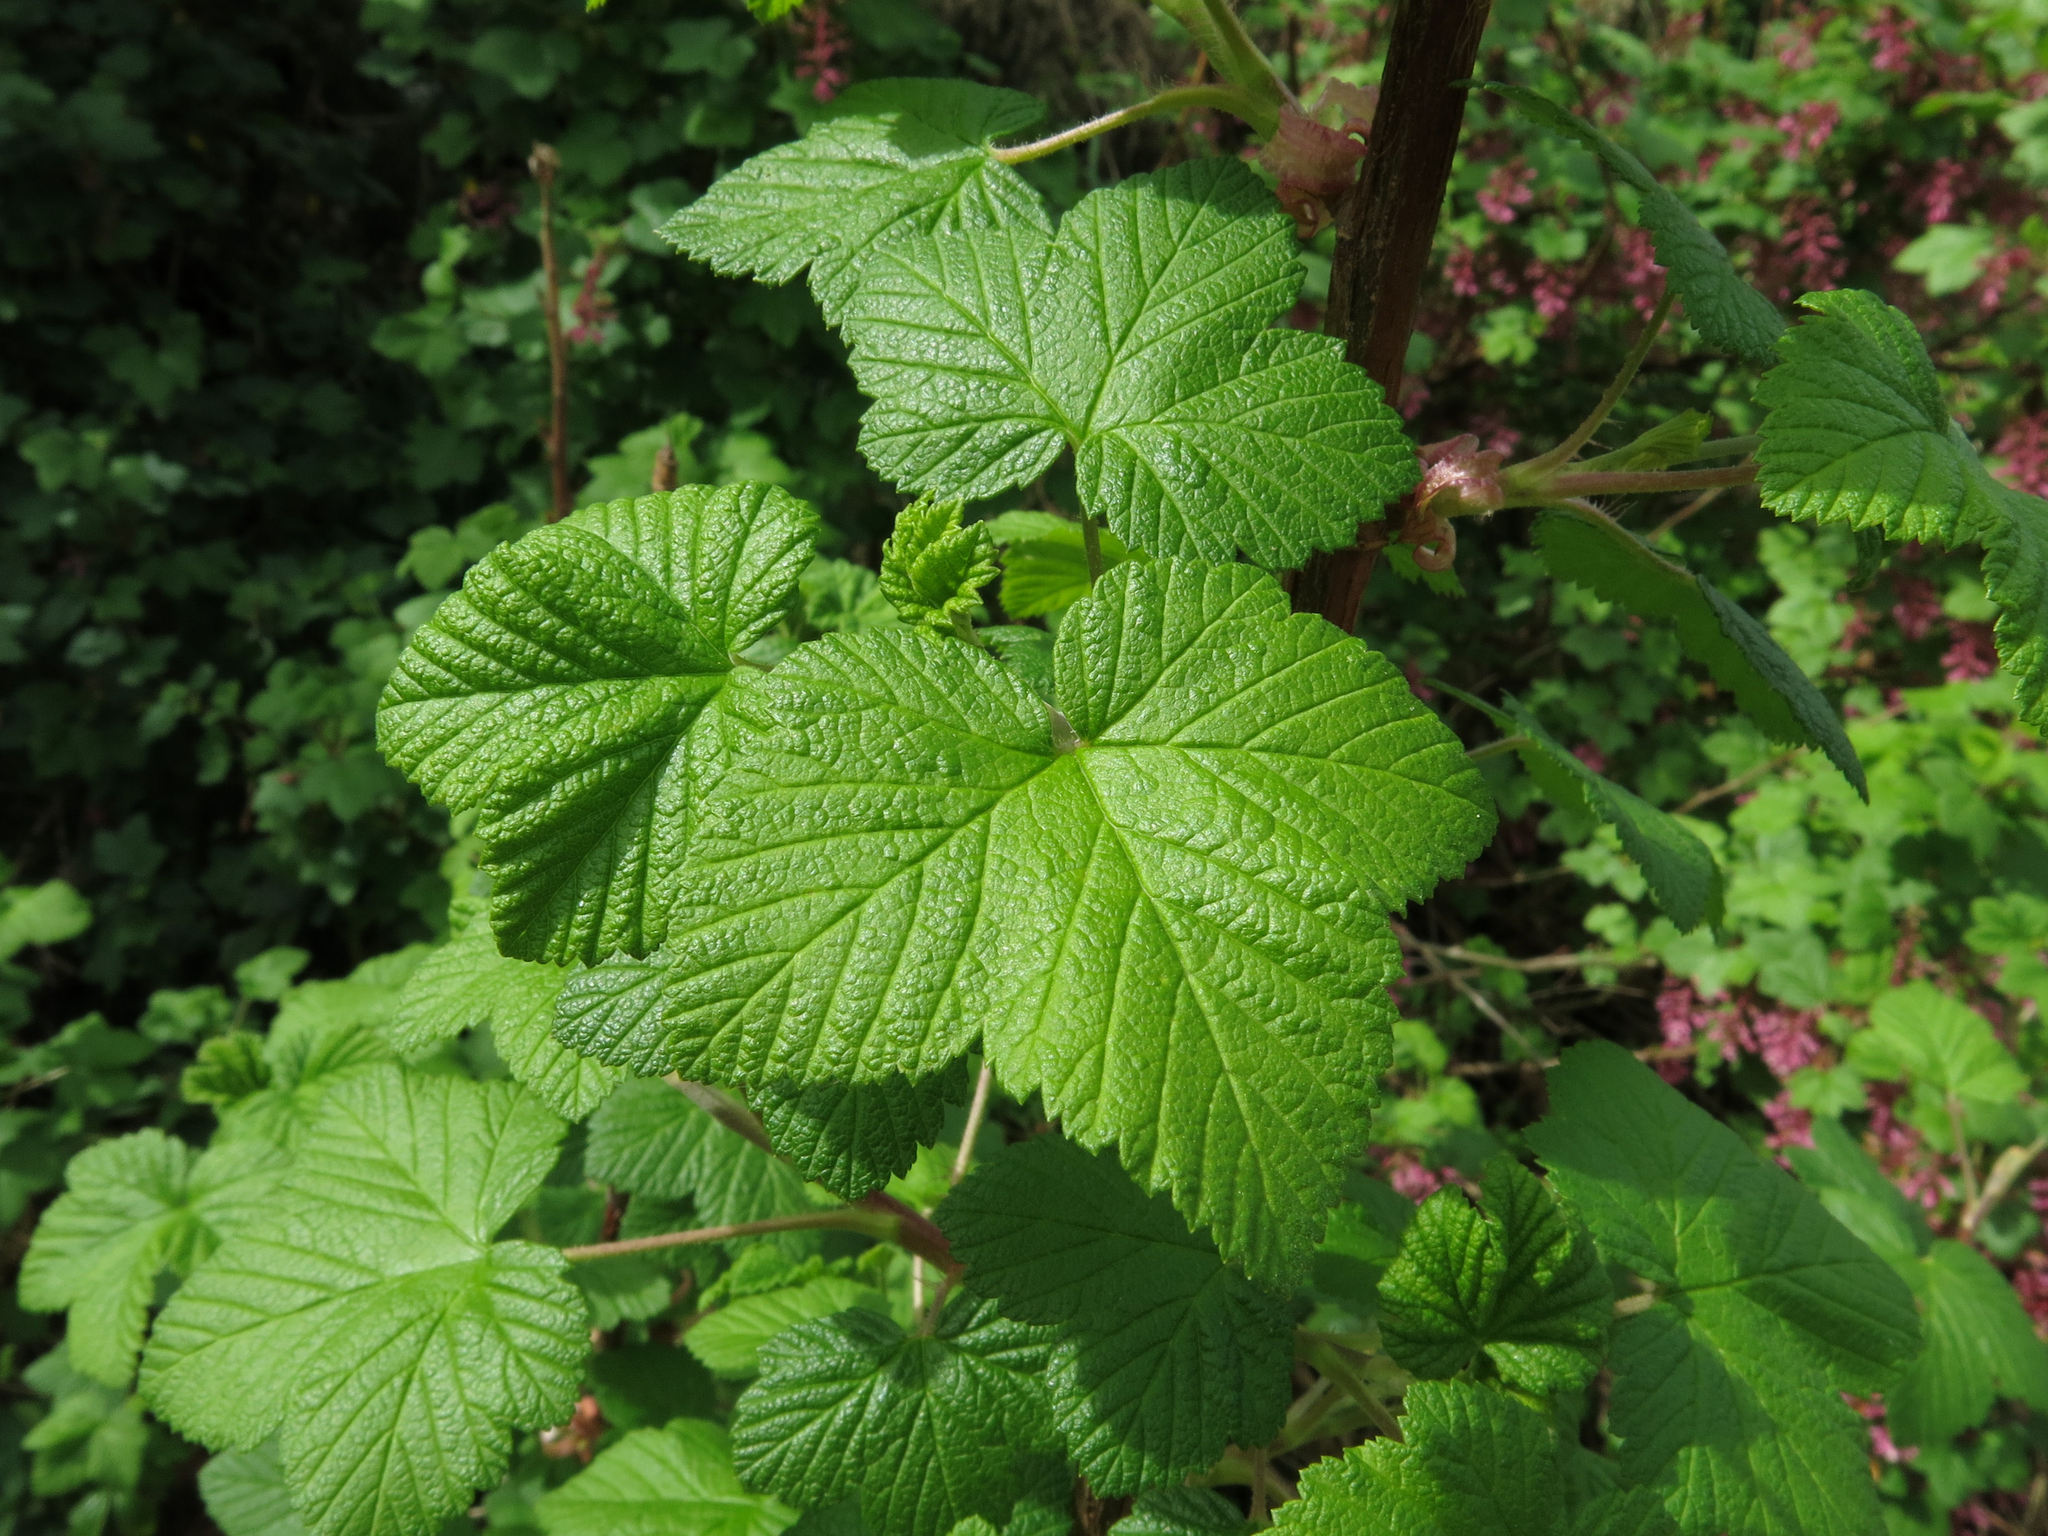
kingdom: Plantae
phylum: Tracheophyta
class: Magnoliopsida
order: Saxifragales
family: Grossulariaceae
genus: Ribes
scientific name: Ribes sanguineum
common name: Flowering currant
